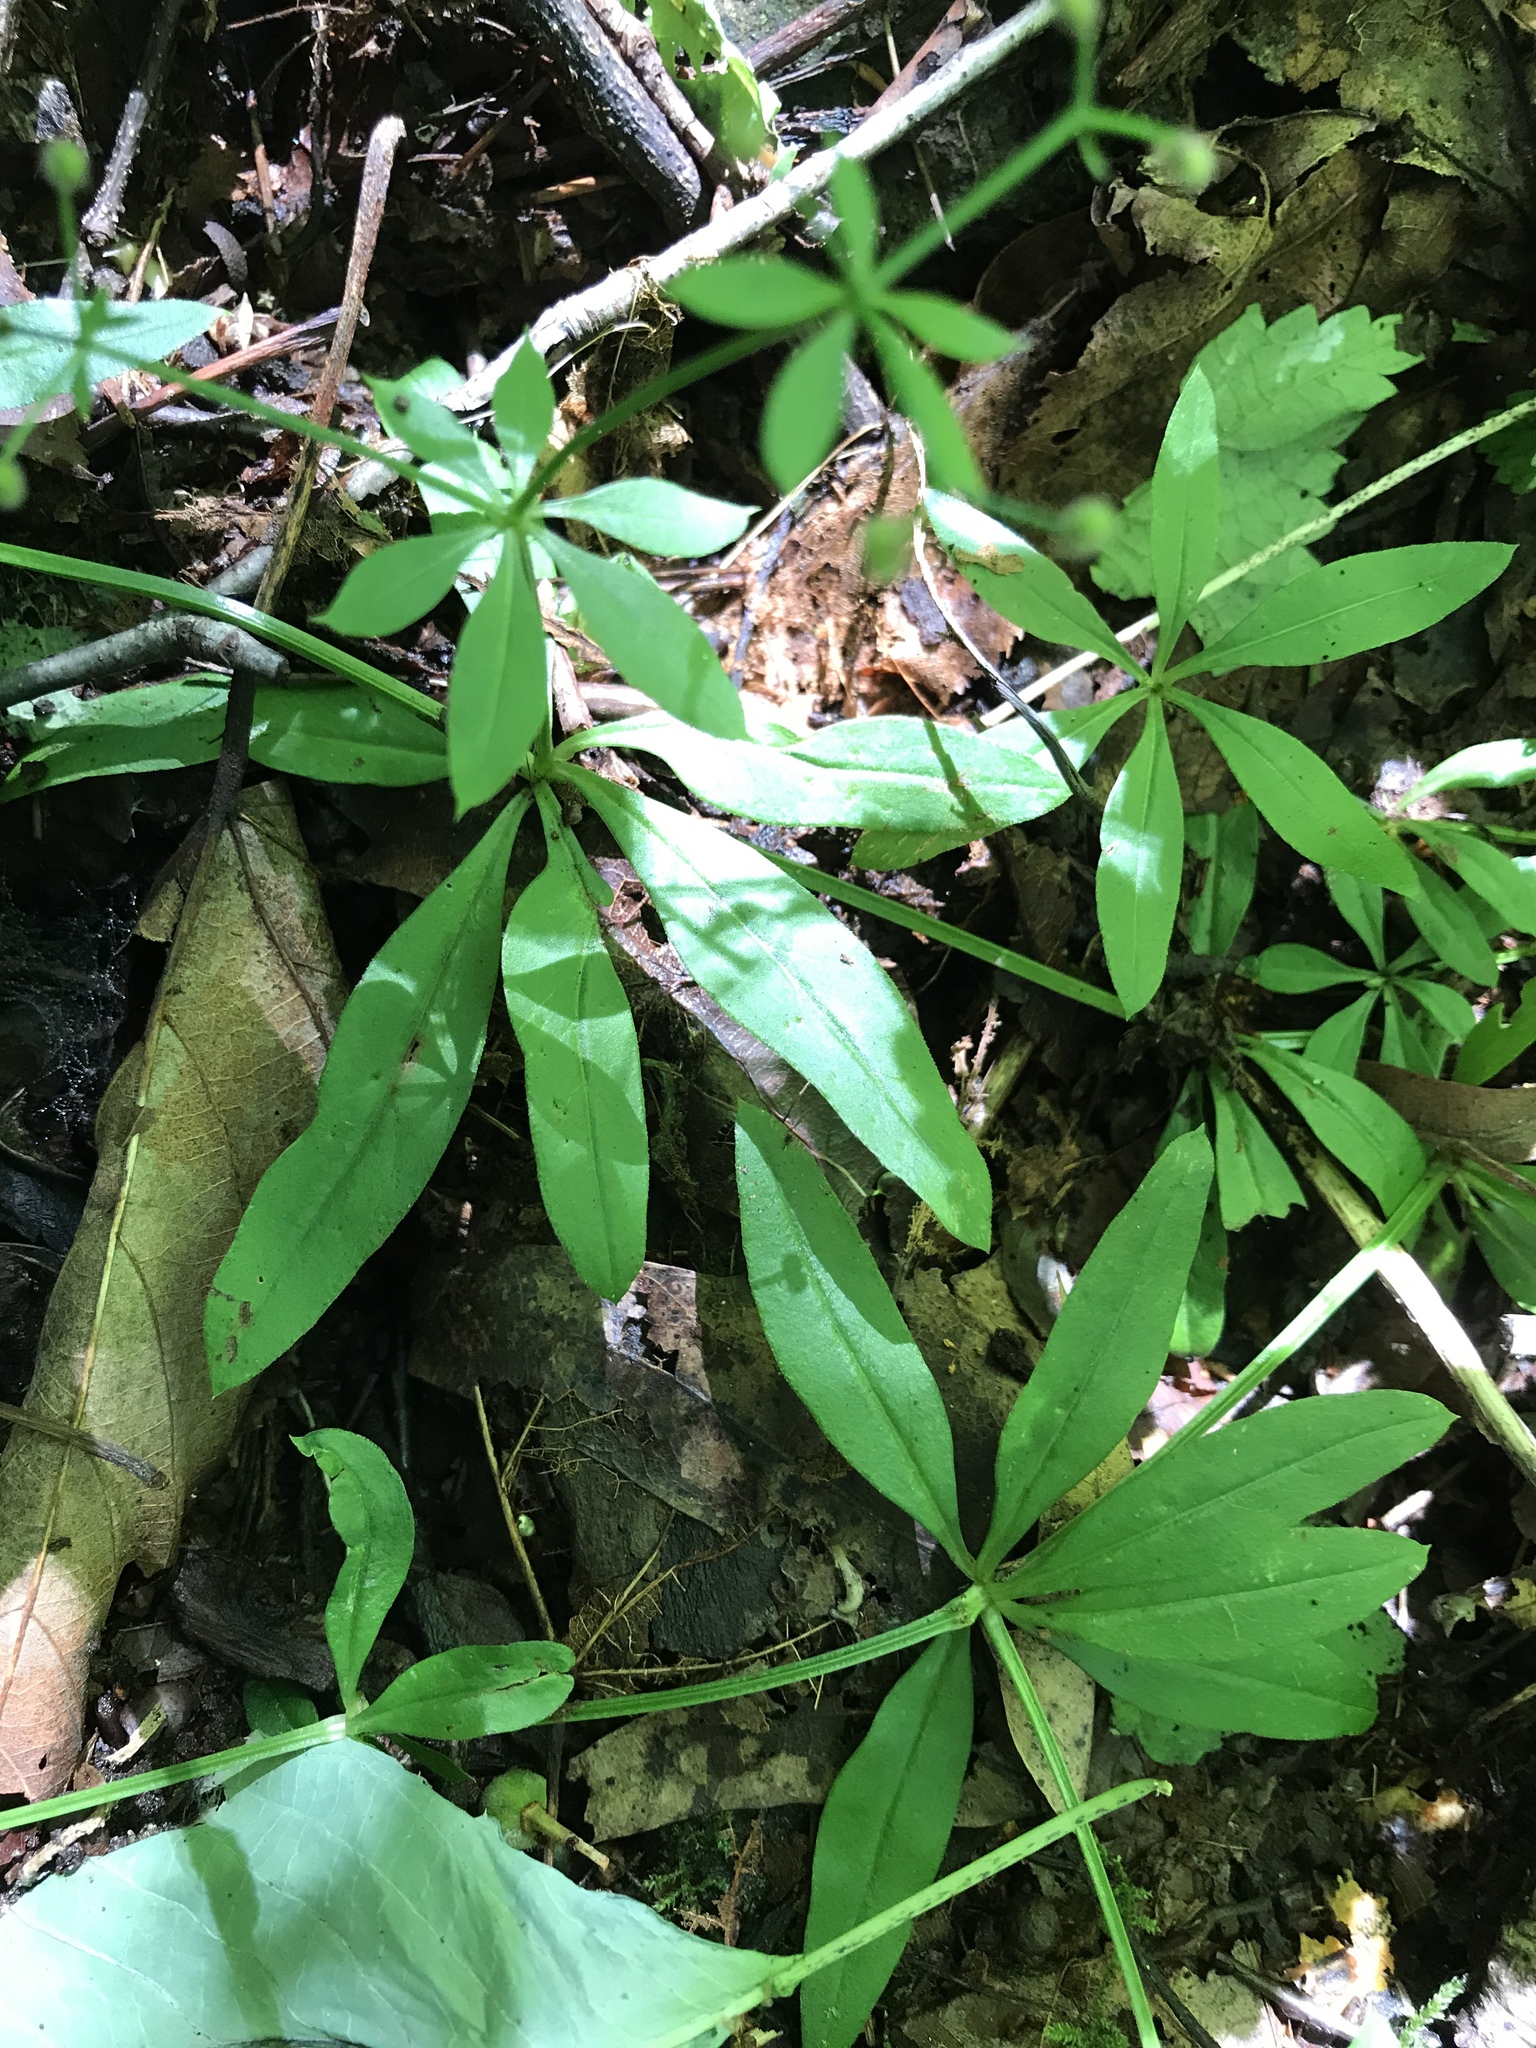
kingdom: Plantae
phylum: Tracheophyta
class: Magnoliopsida
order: Gentianales
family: Rubiaceae
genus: Galium
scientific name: Galium triflorum
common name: Fragrant bedstraw
